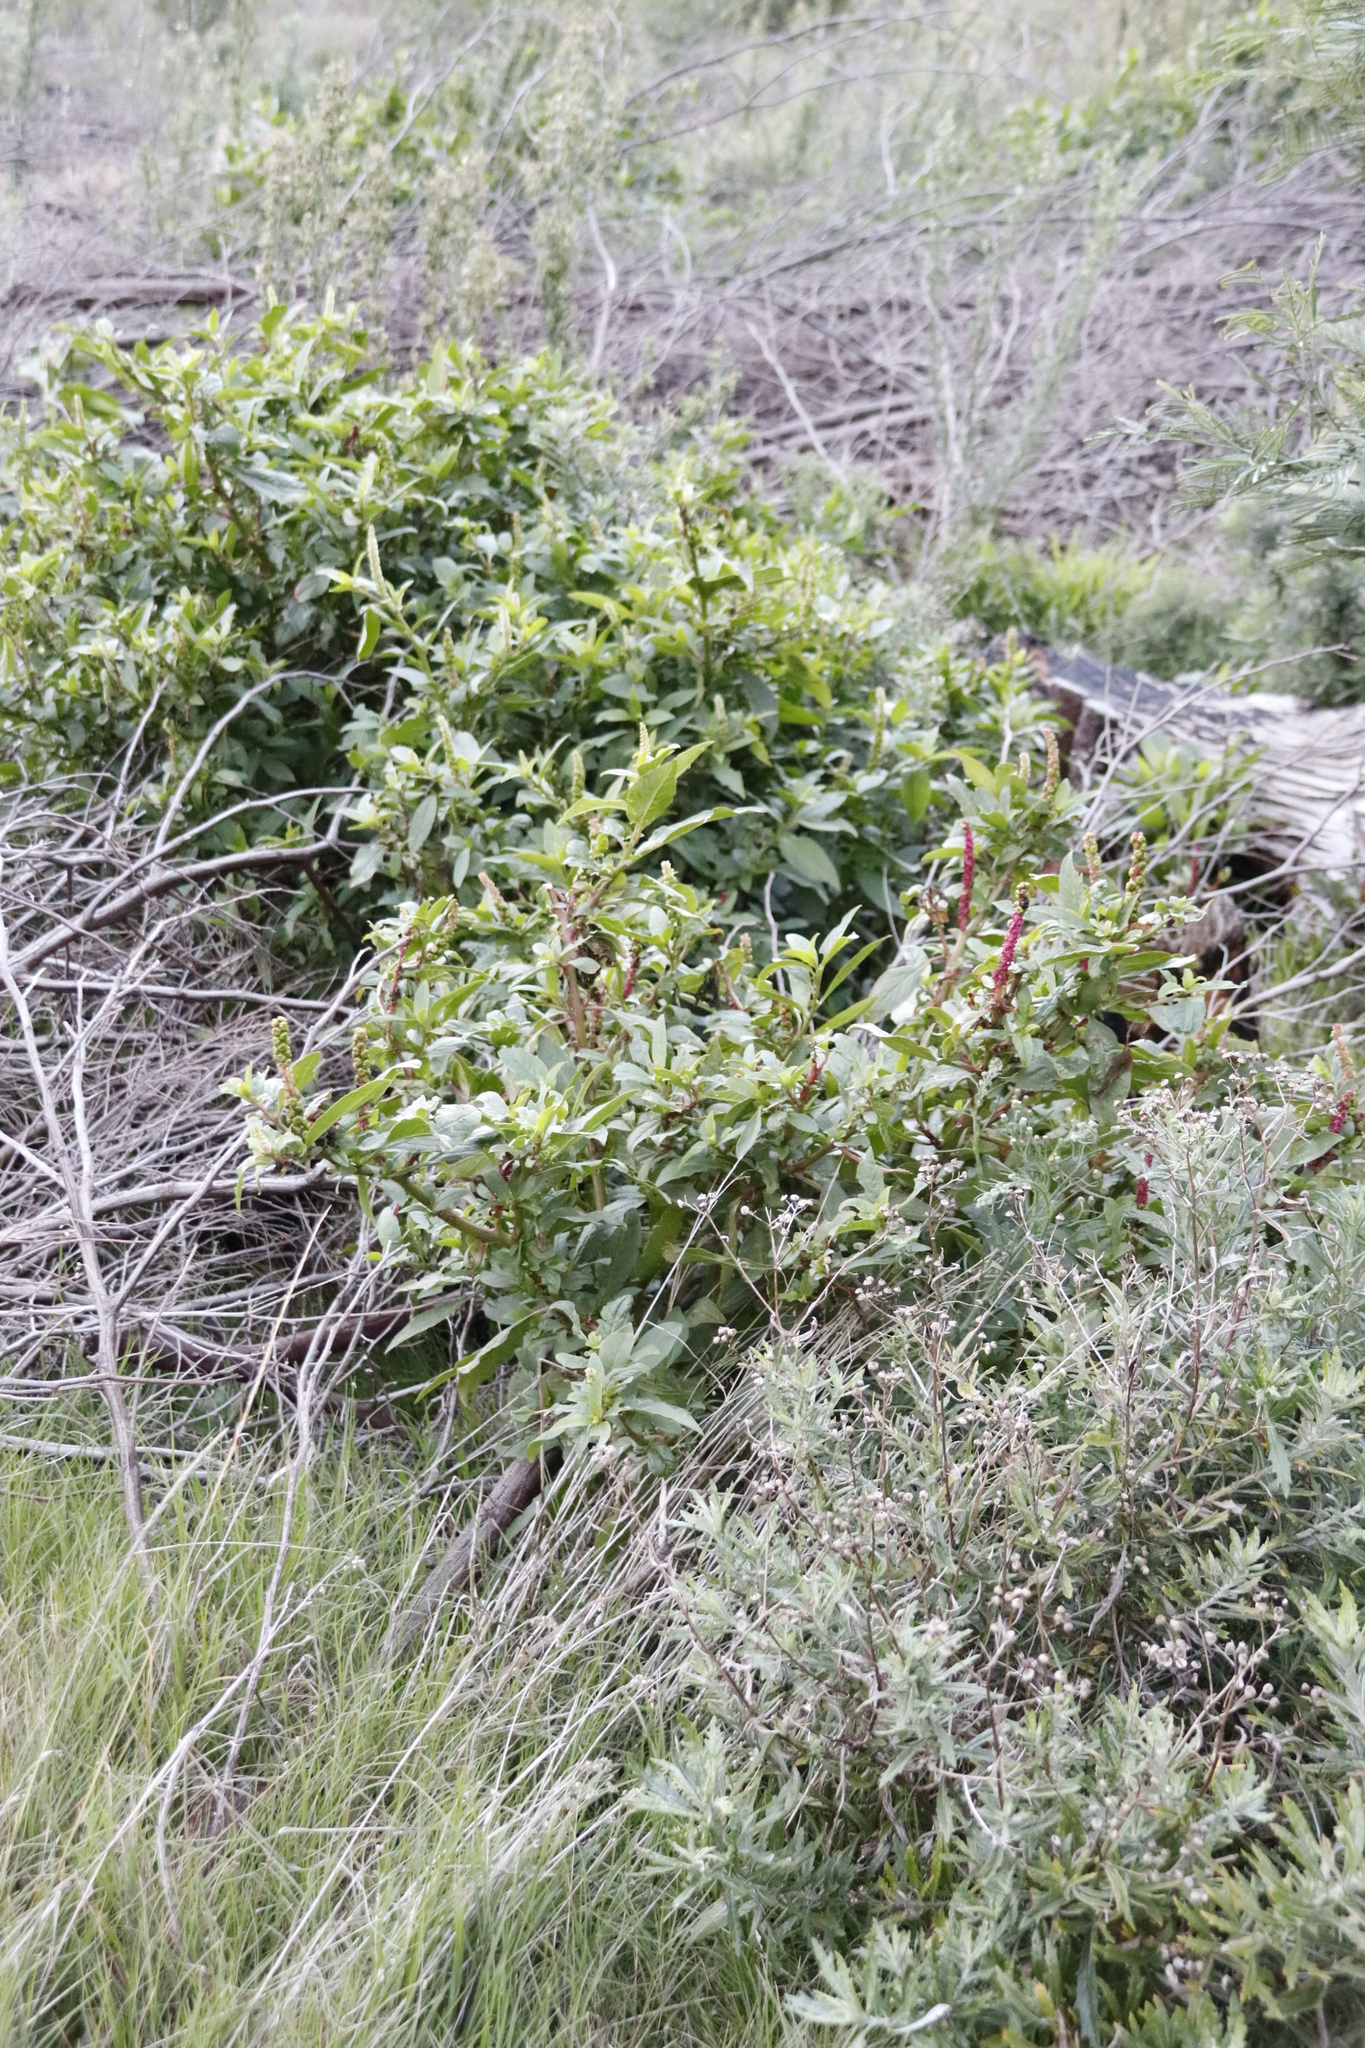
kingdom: Plantae
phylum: Tracheophyta
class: Magnoliopsida
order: Caryophyllales
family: Phytolaccaceae
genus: Phytolacca
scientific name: Phytolacca icosandra
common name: Button pokeweed
